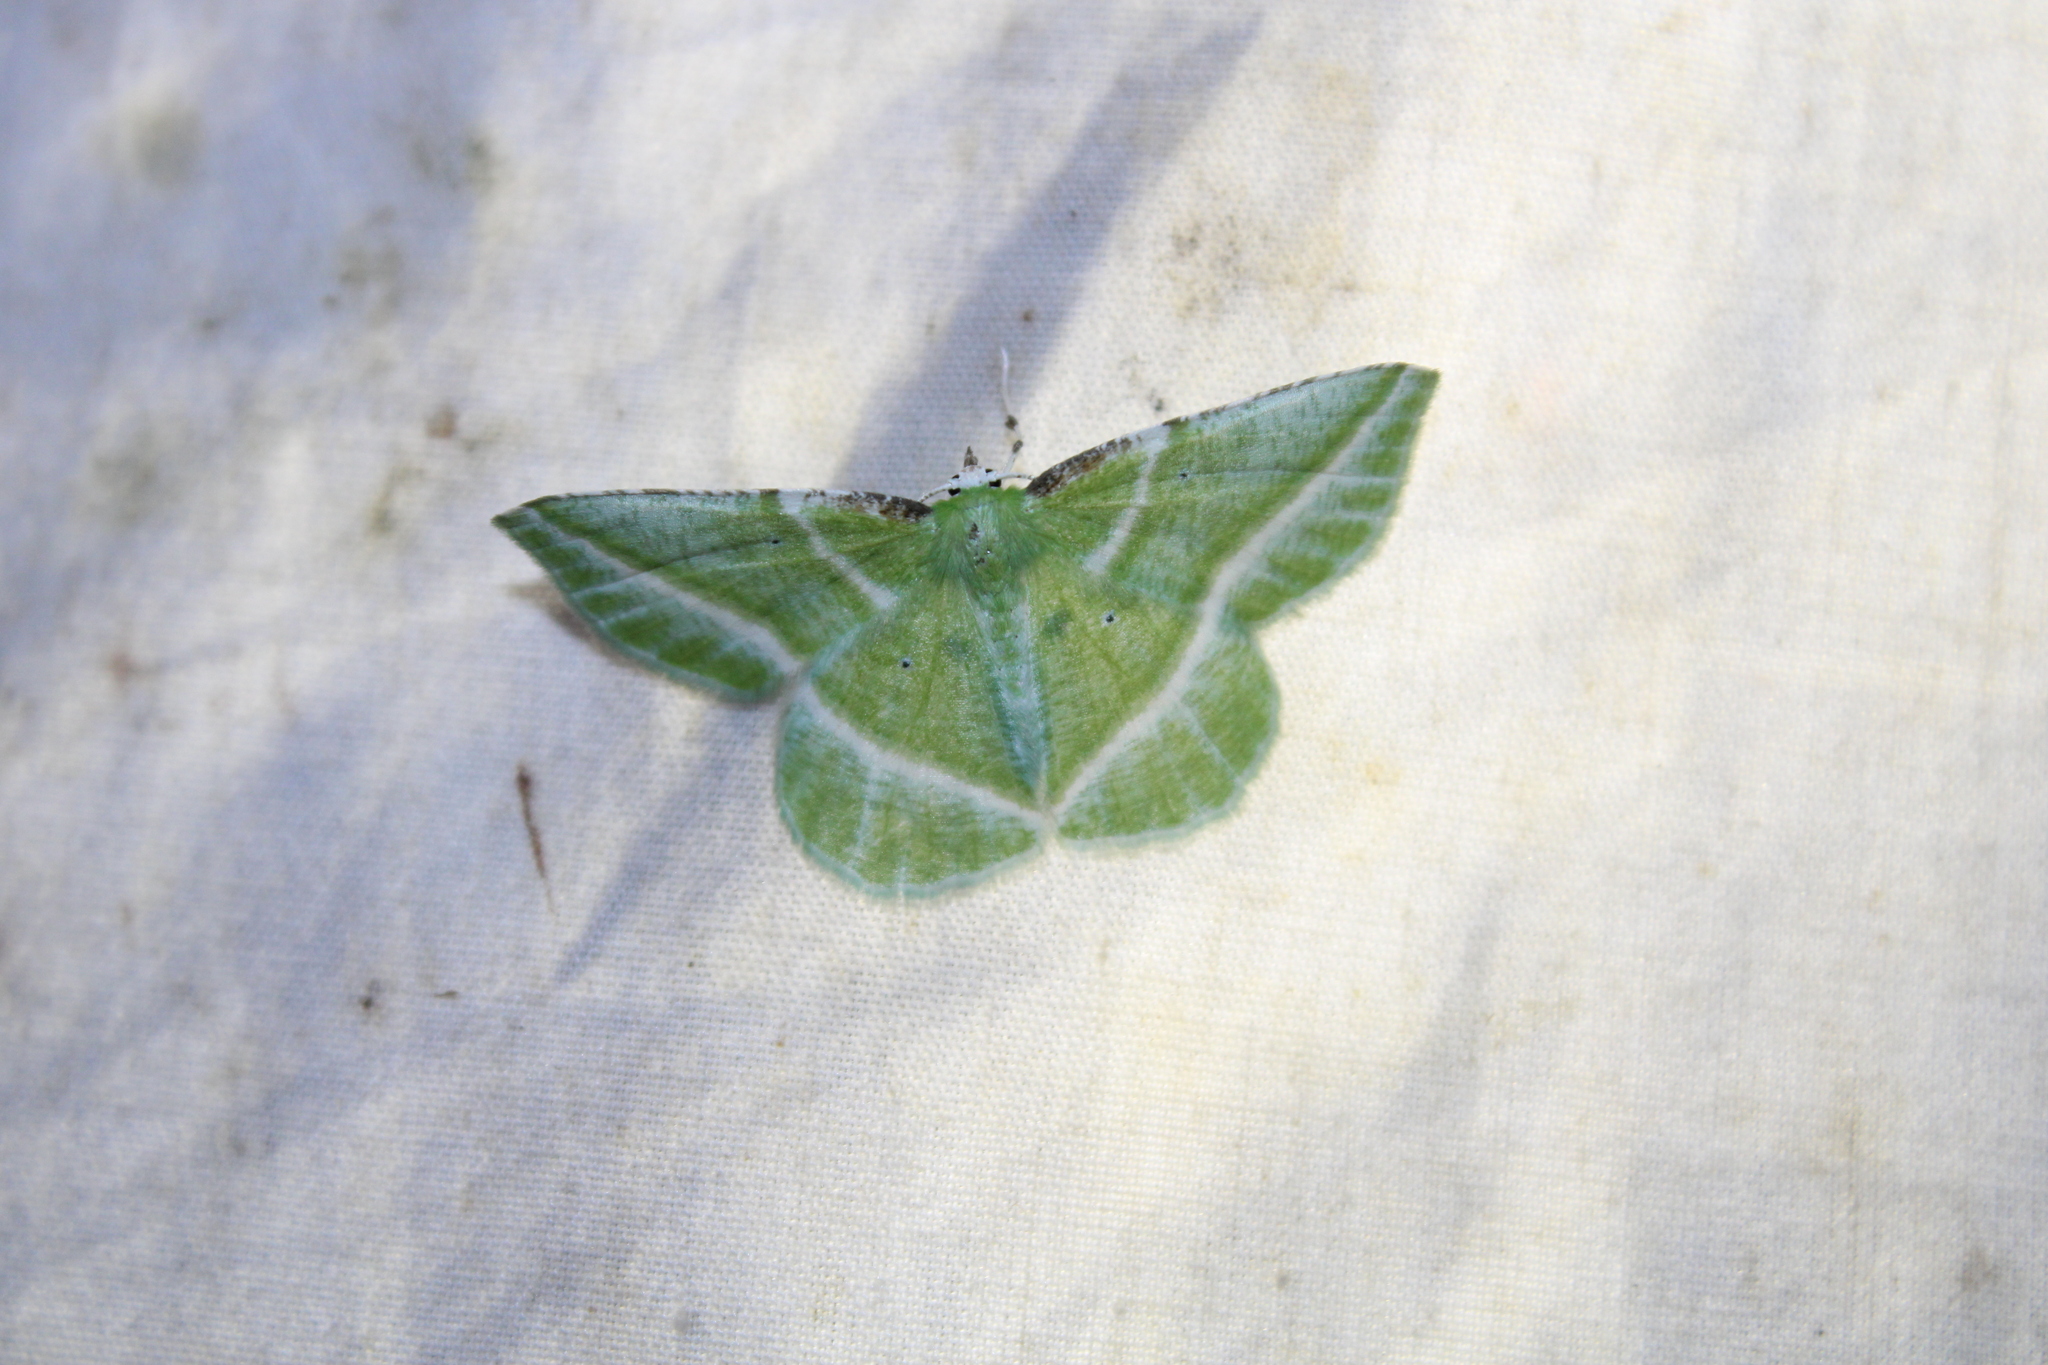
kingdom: Animalia
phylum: Arthropoda
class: Insecta
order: Lepidoptera
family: Geometridae
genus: Dichorda
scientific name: Dichorda iridaria
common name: Showy emerald
